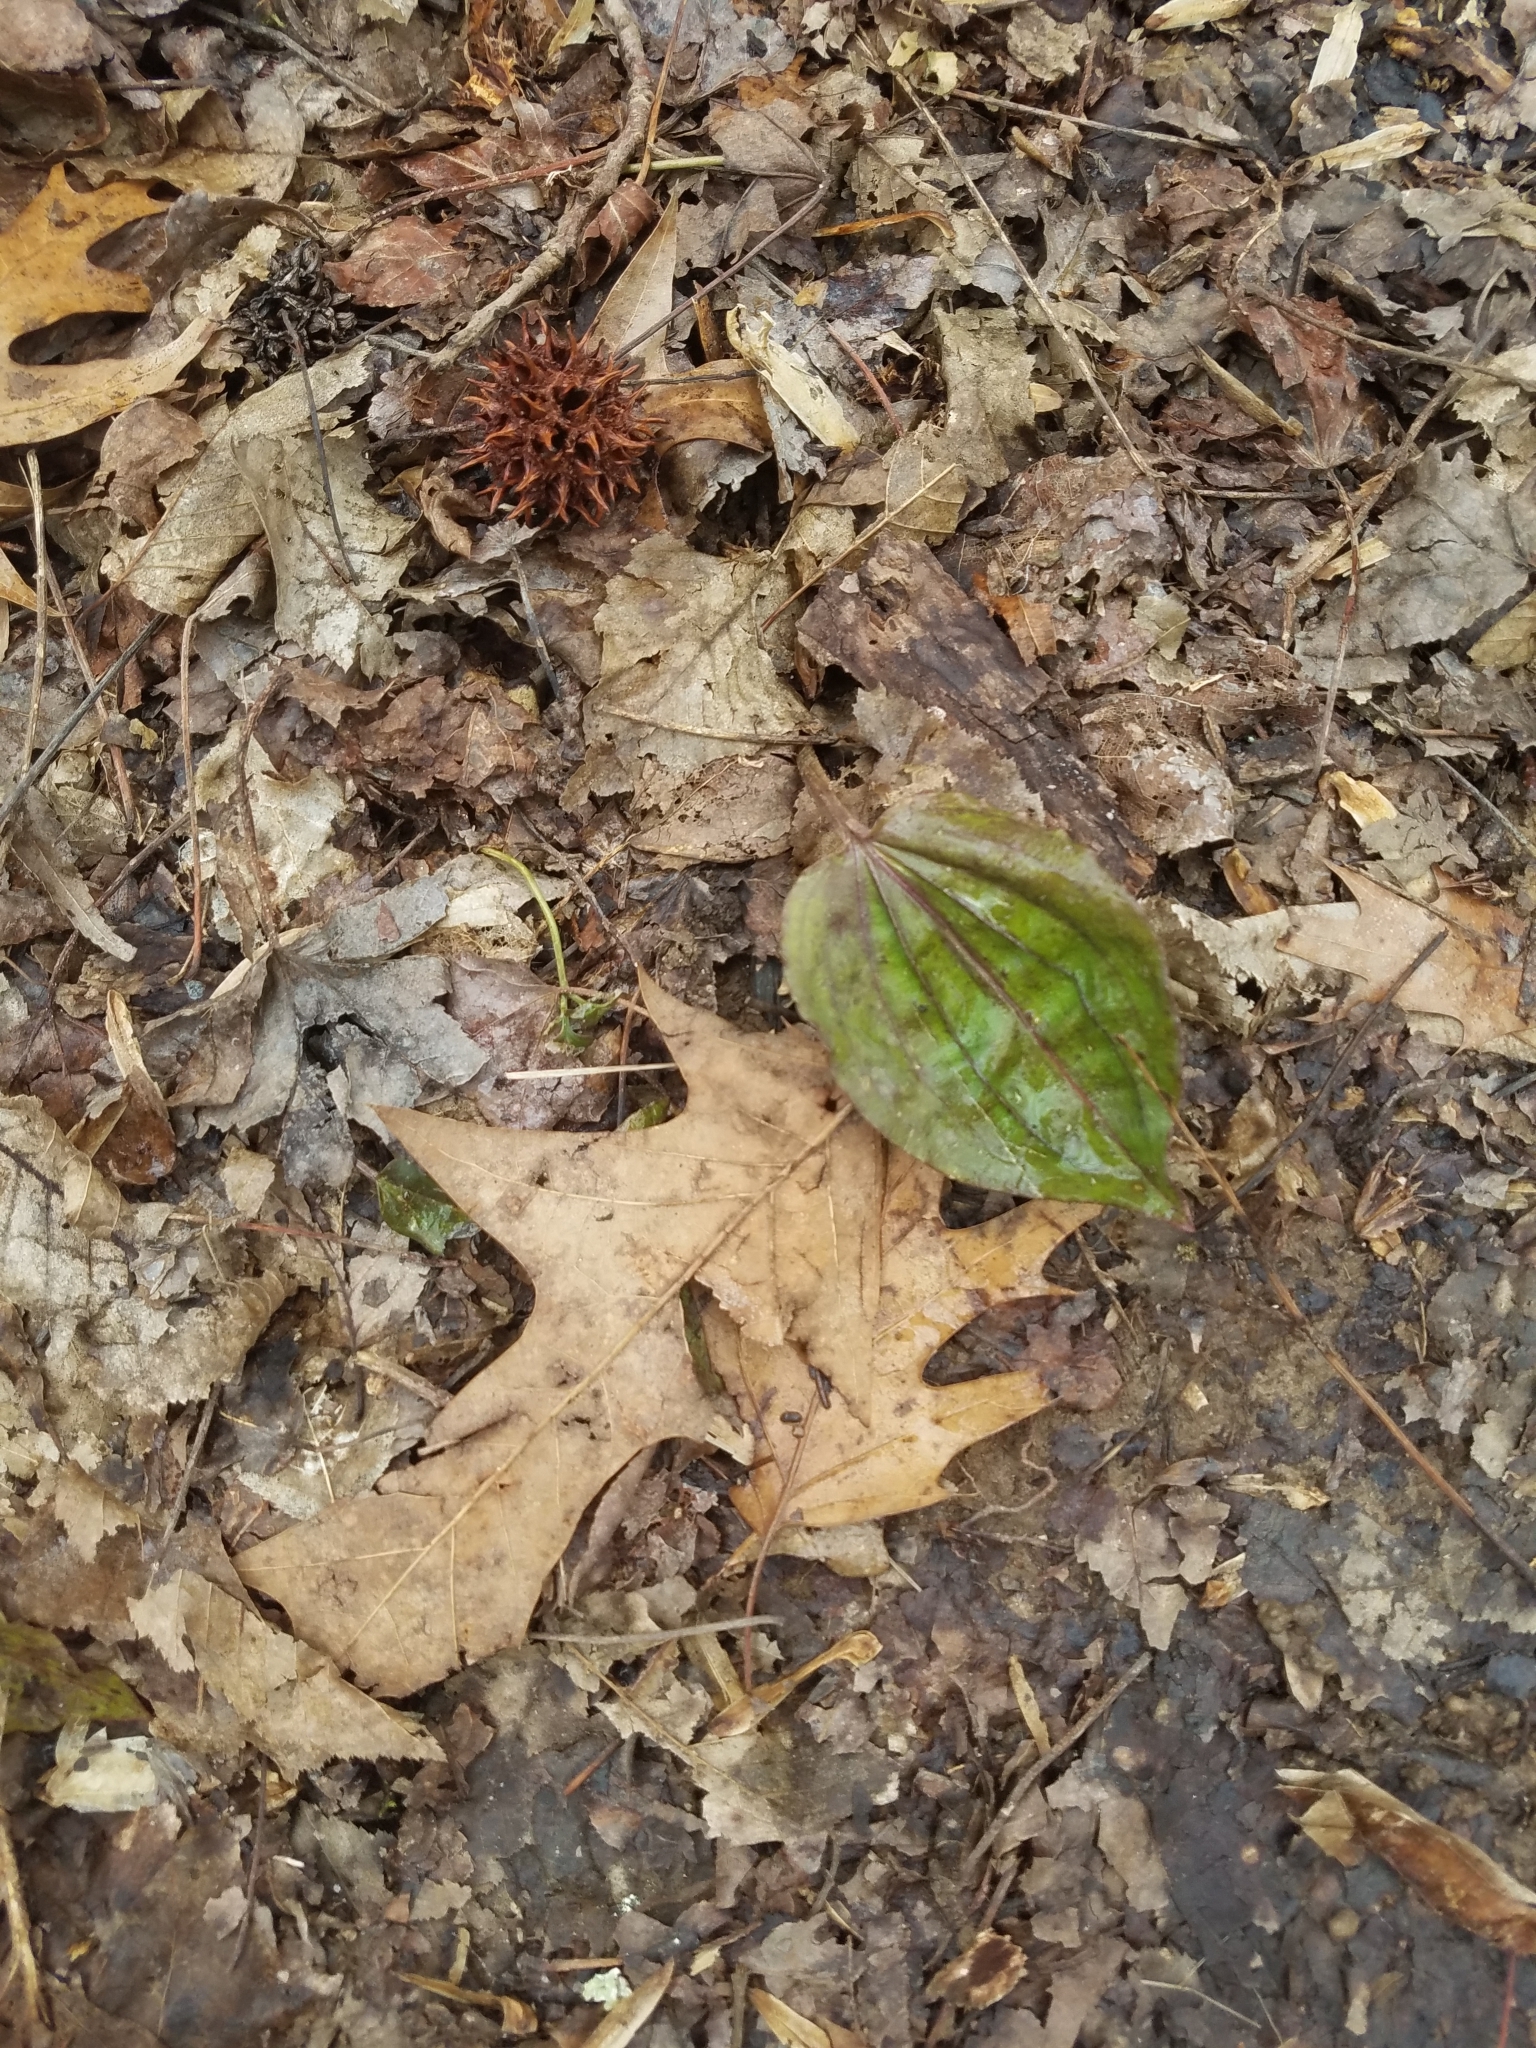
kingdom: Plantae
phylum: Tracheophyta
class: Liliopsida
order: Asparagales
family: Orchidaceae
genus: Tipularia
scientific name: Tipularia discolor
